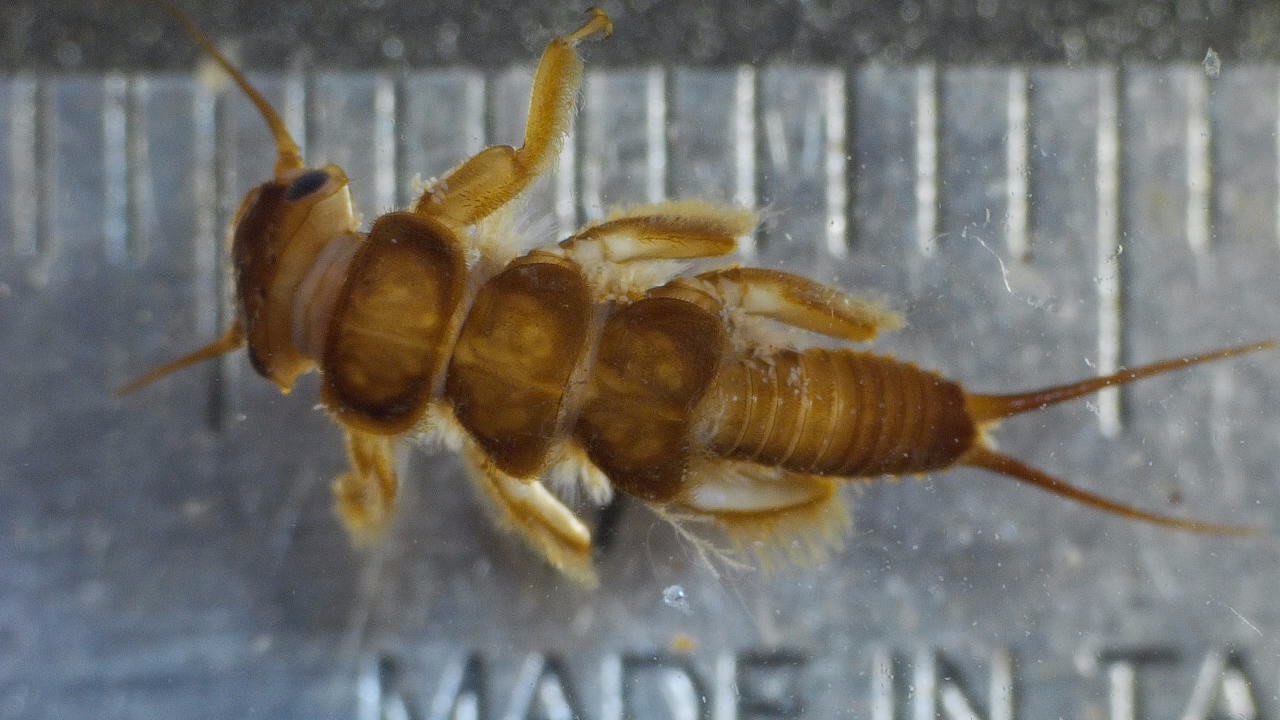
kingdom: Animalia
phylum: Arthropoda
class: Insecta
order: Plecoptera
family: Perlidae
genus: Paragnetina
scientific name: Paragnetina media
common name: Embossed stone
